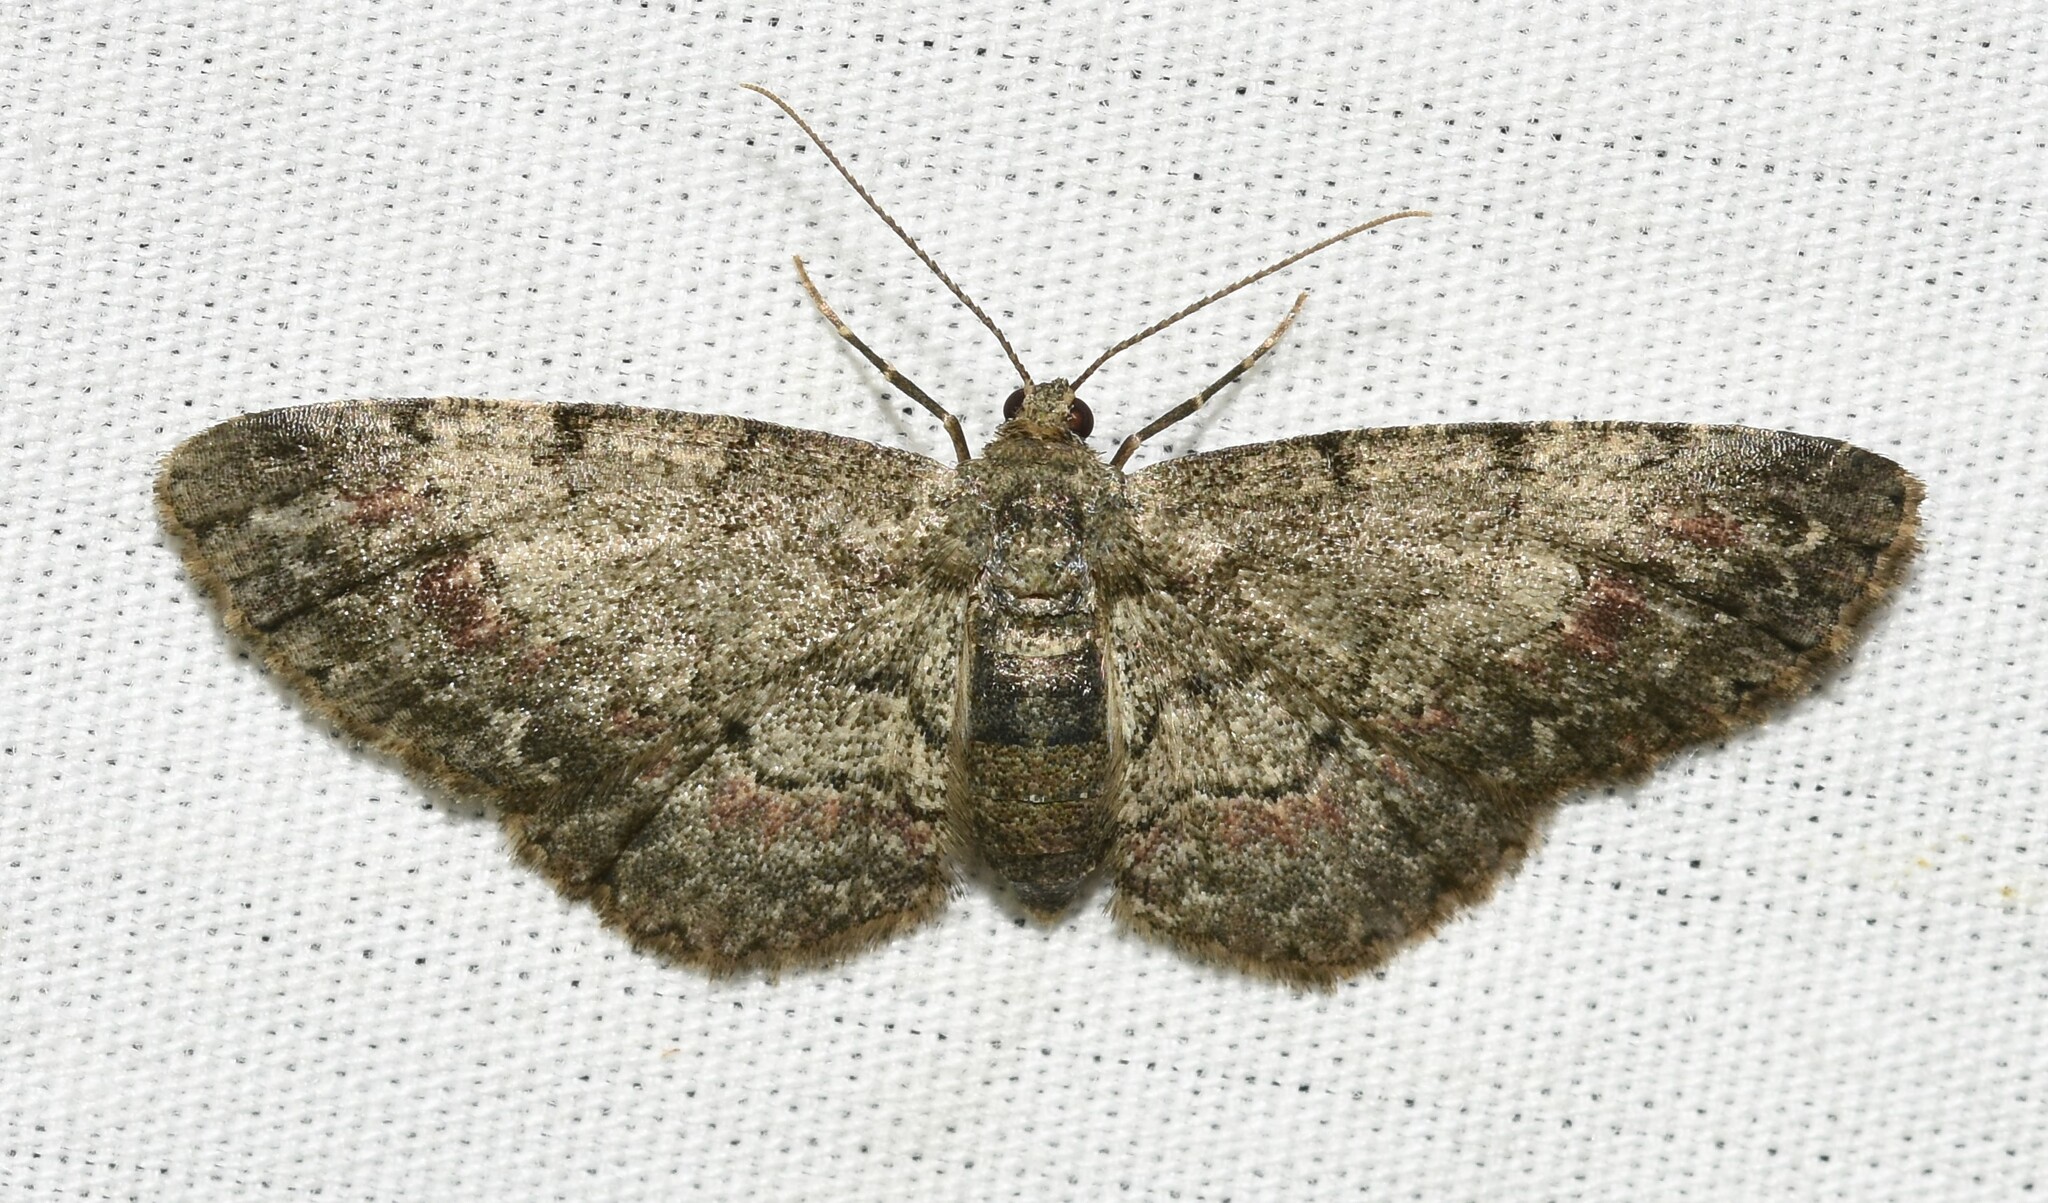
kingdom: Animalia
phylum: Arthropoda
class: Insecta
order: Lepidoptera
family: Geometridae
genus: Glenoides
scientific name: Glenoides texanaria
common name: Texas gray
